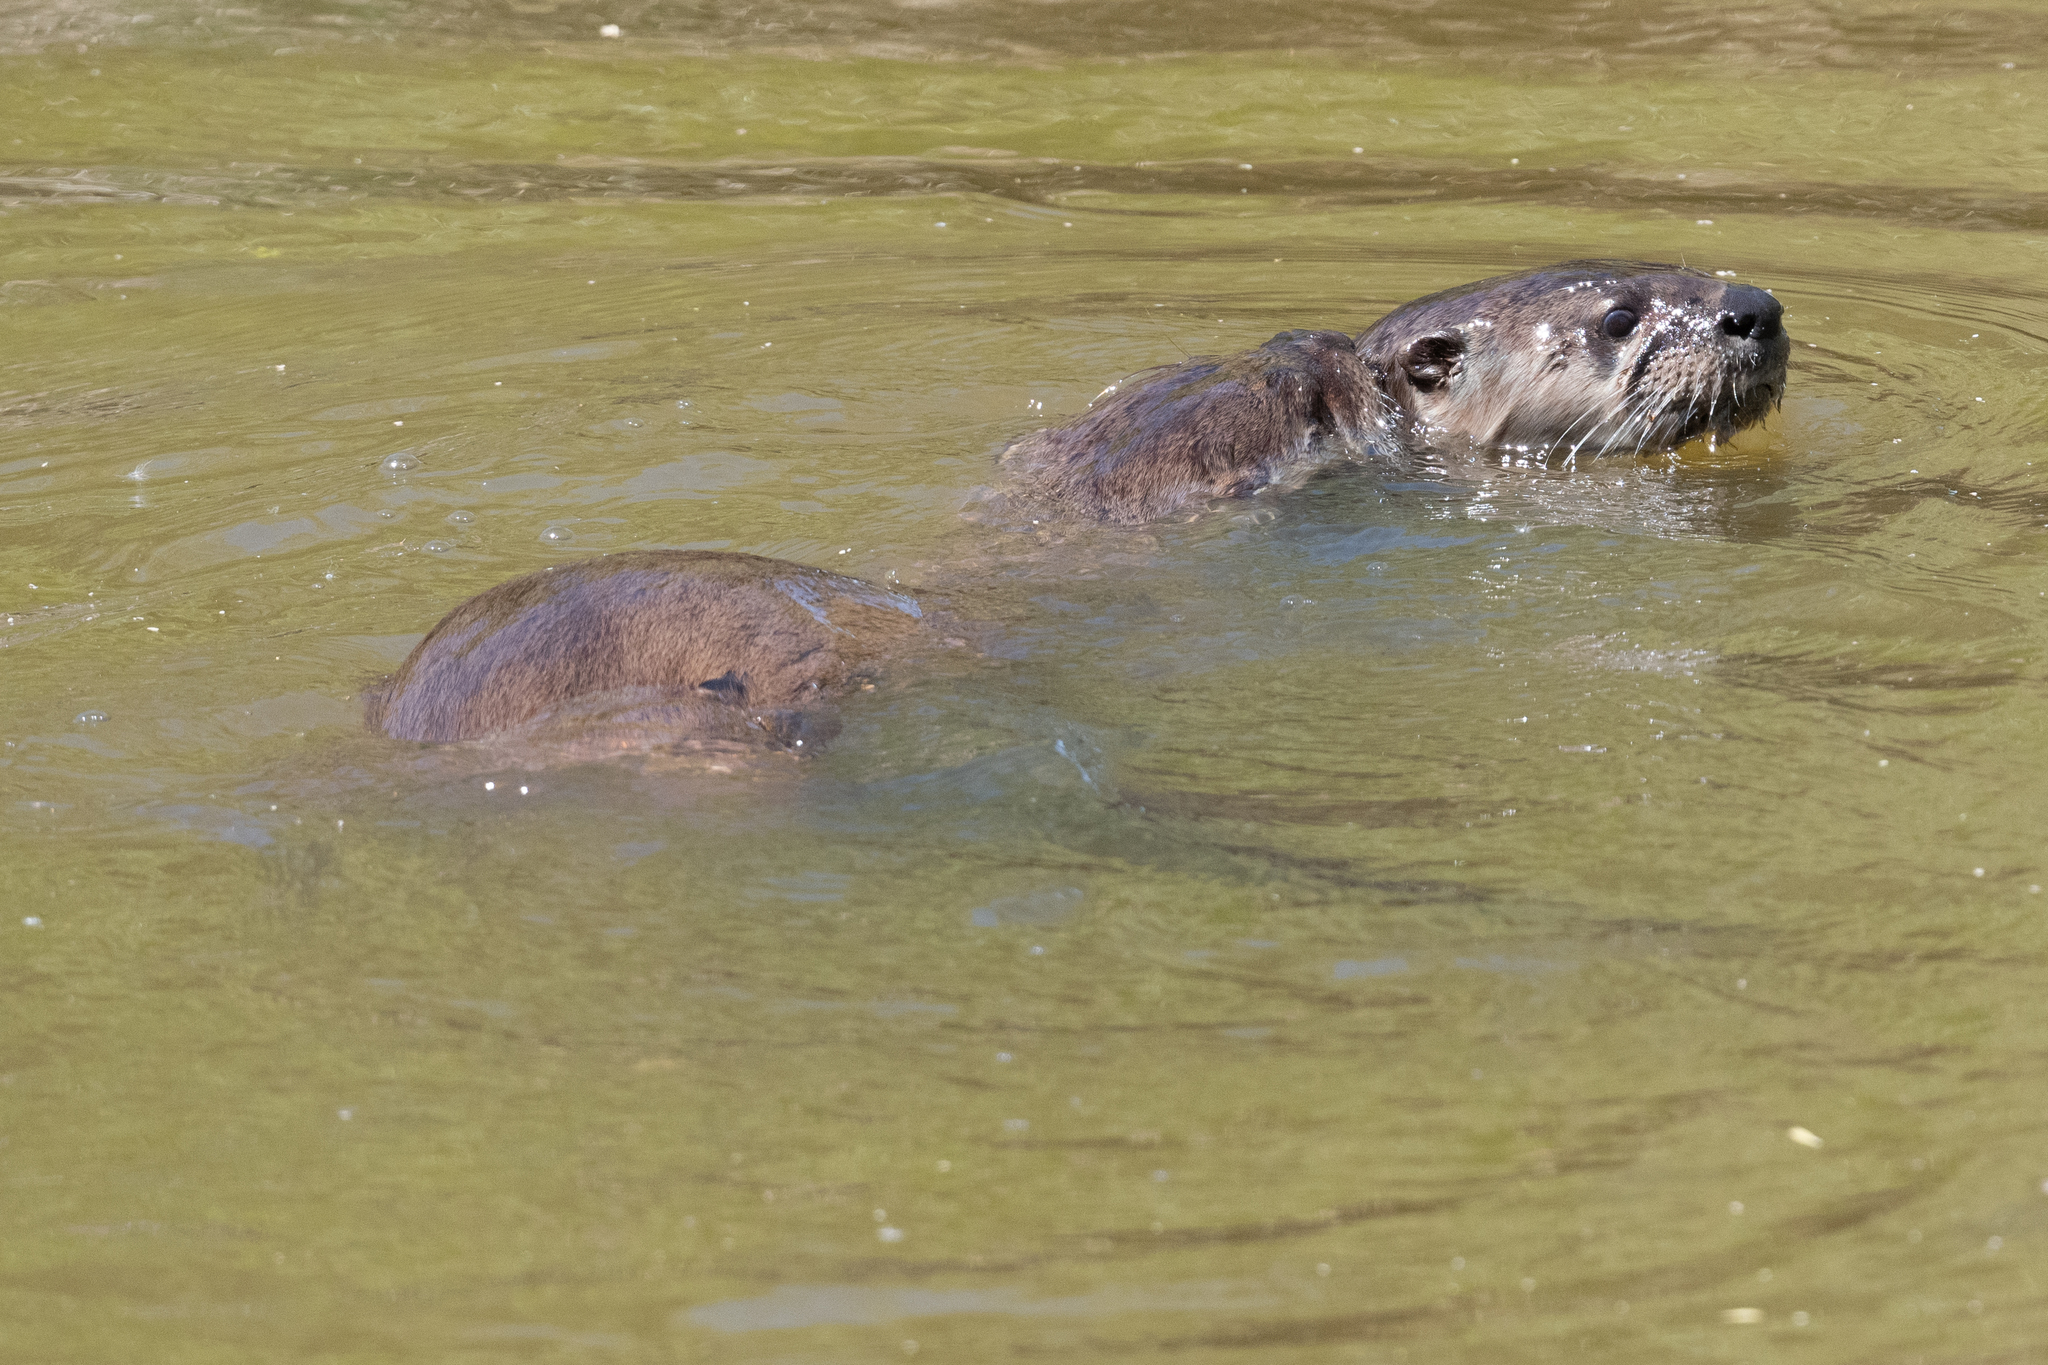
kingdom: Animalia
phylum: Chordata
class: Mammalia
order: Carnivora
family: Mustelidae
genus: Lontra
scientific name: Lontra canadensis
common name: North american river otter
